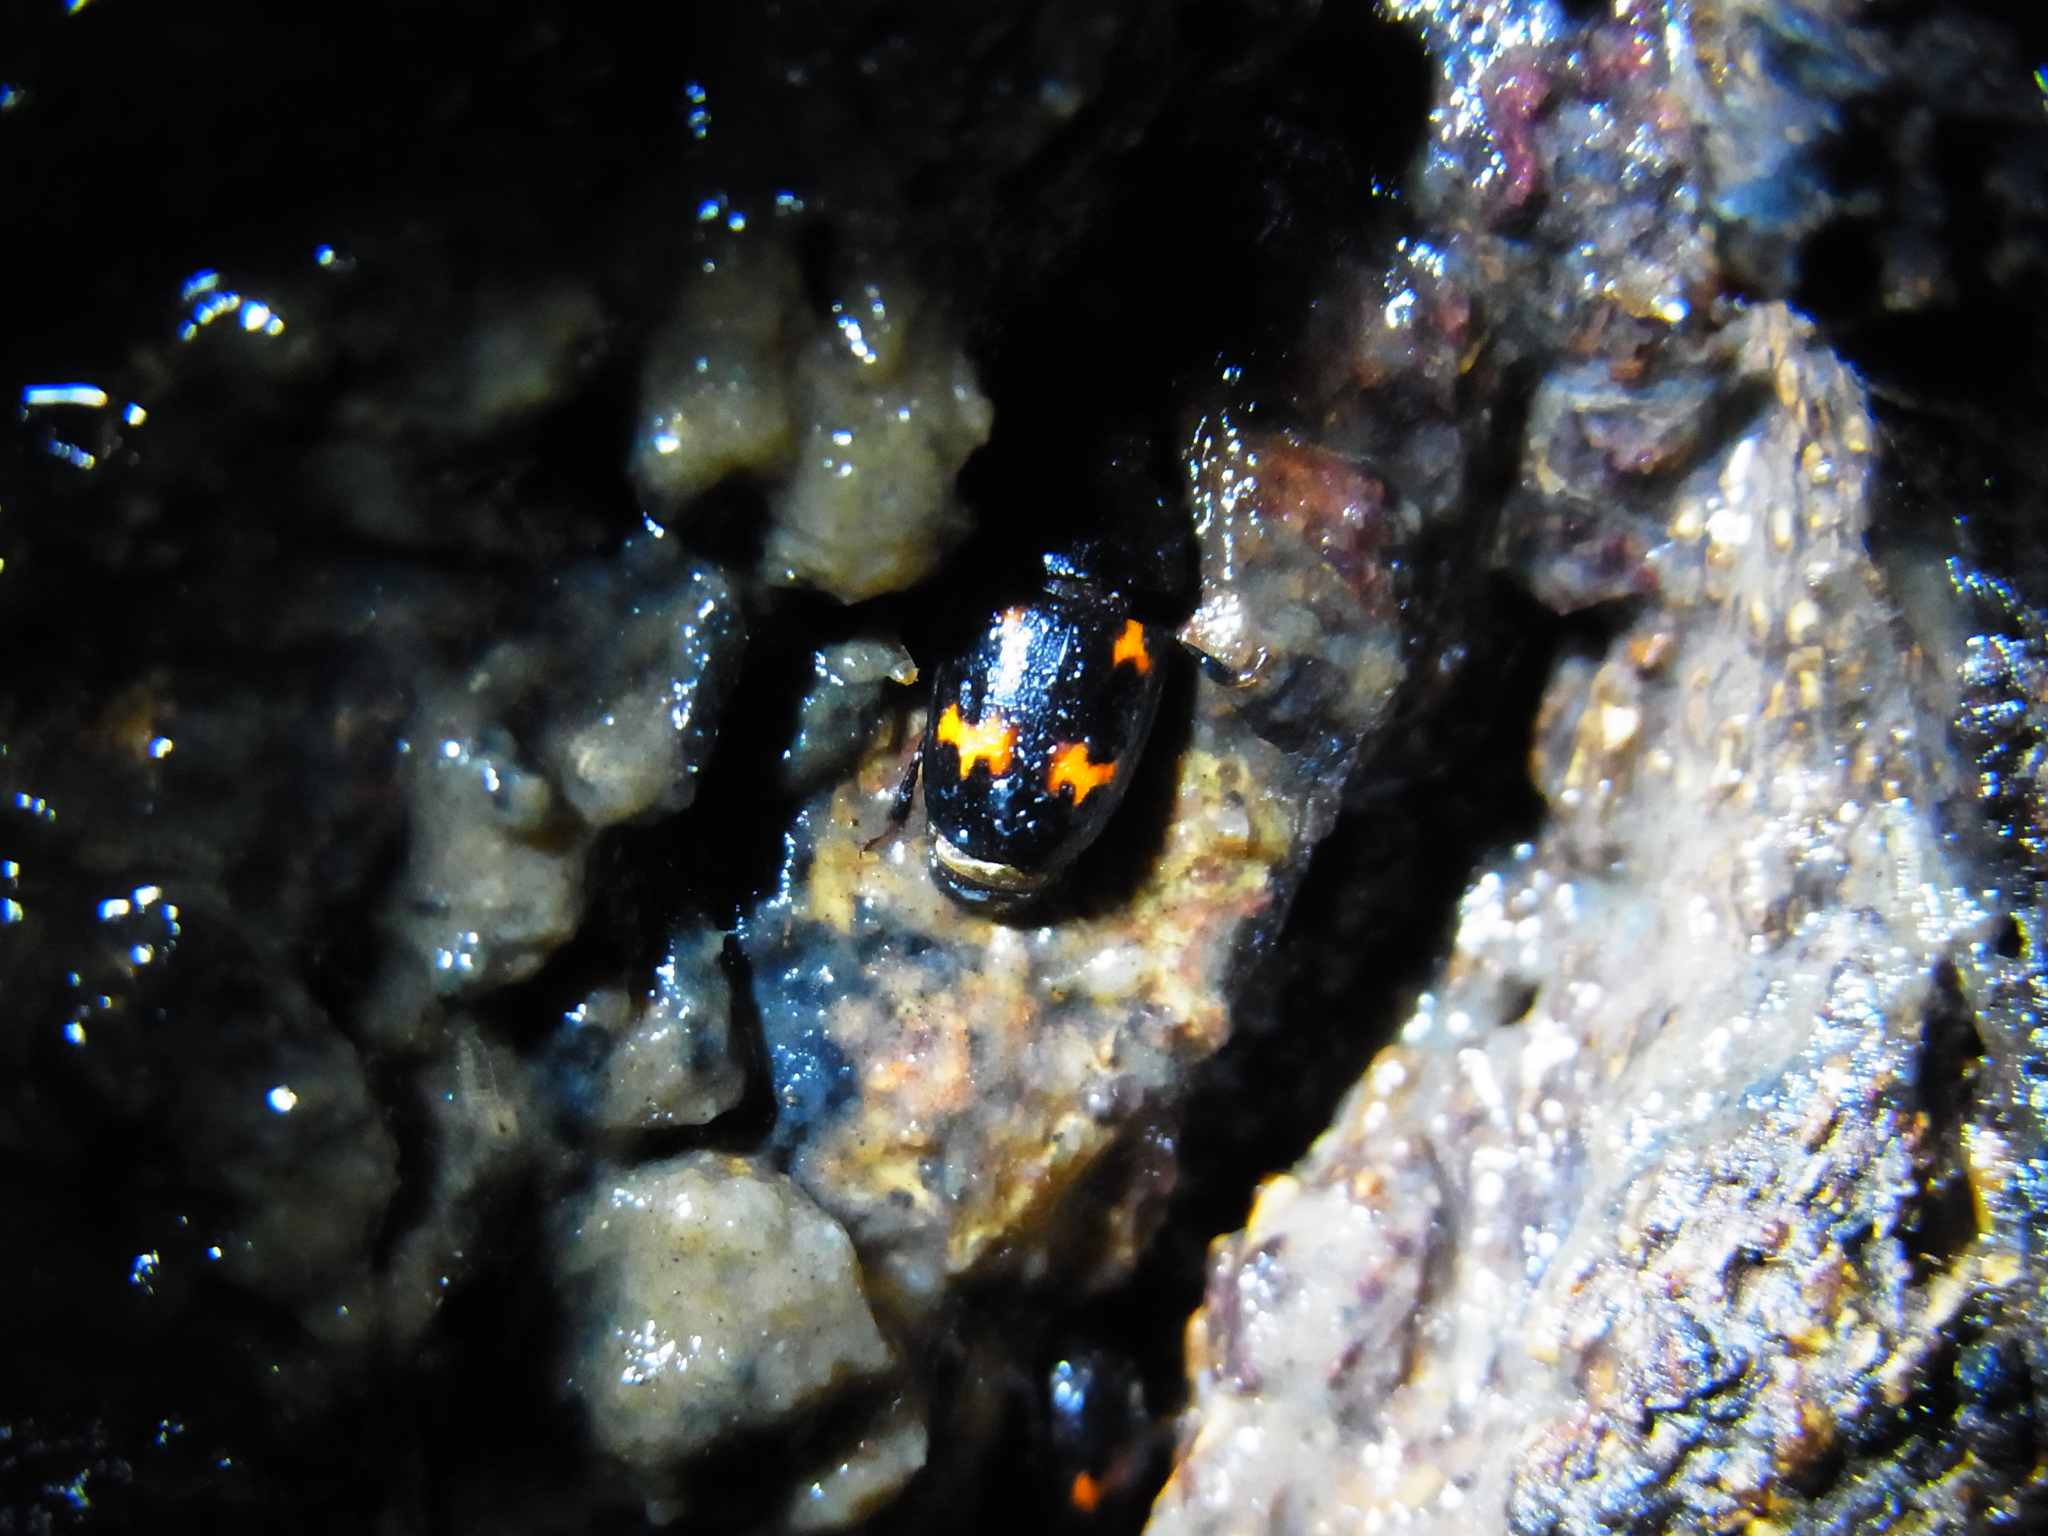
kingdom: Animalia
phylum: Arthropoda
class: Insecta
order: Coleoptera
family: Nitidulidae
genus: Glischrochilus
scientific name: Glischrochilus japonius
